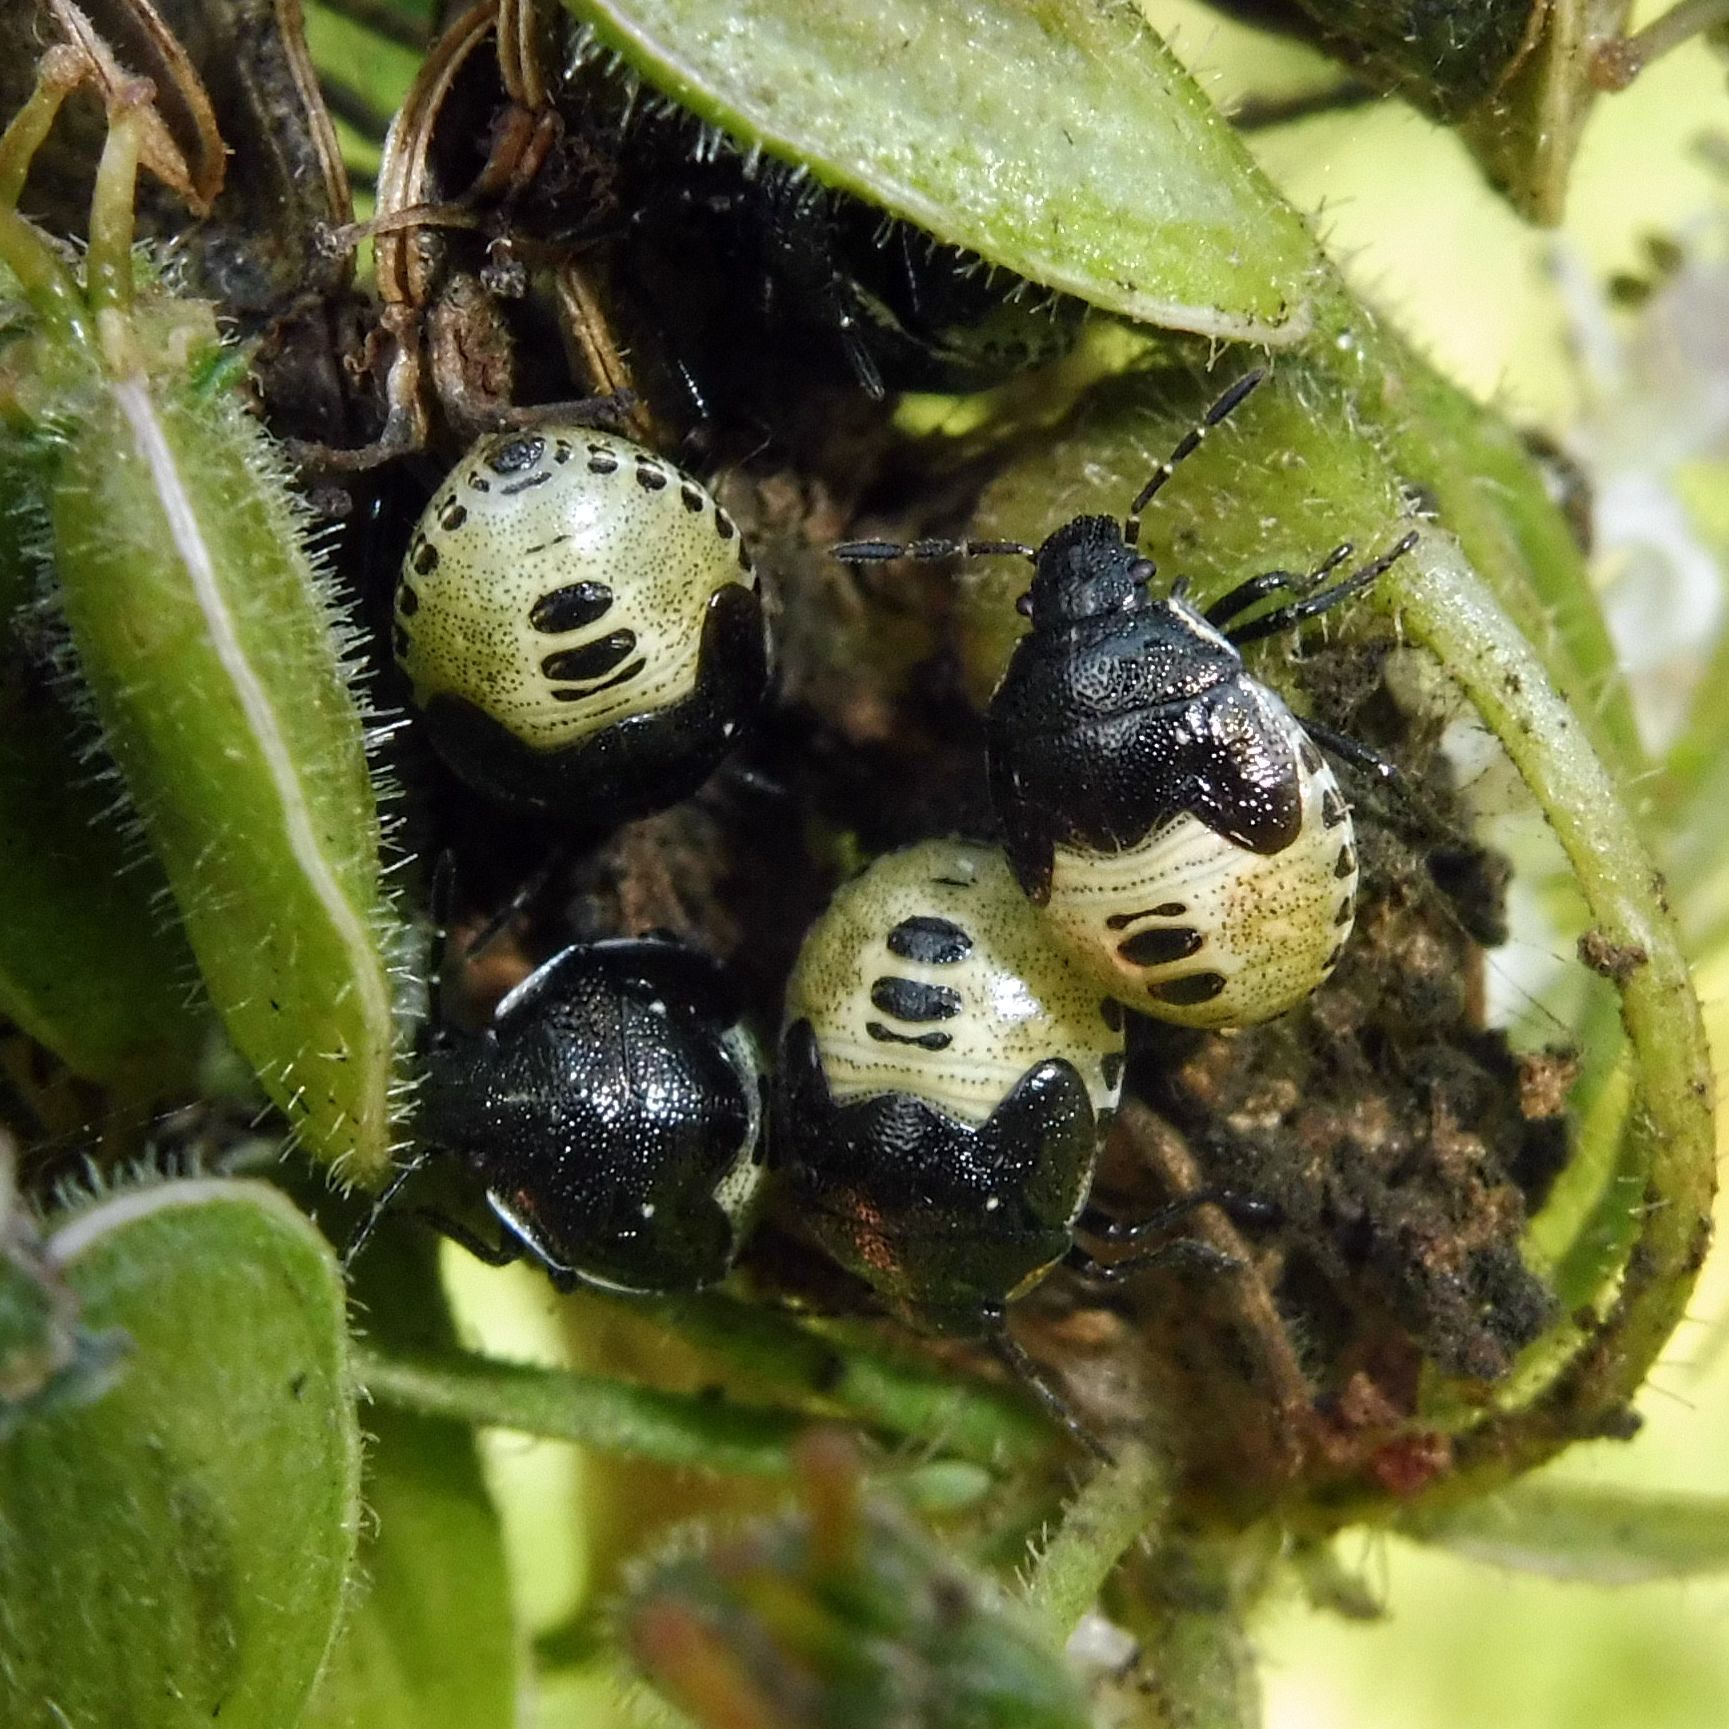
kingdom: Animalia
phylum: Arthropoda
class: Insecta
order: Hemiptera
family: Pentatomidae
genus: Eysarcoris
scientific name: Eysarcoris venustissimus
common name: Woundwort shieldbug
